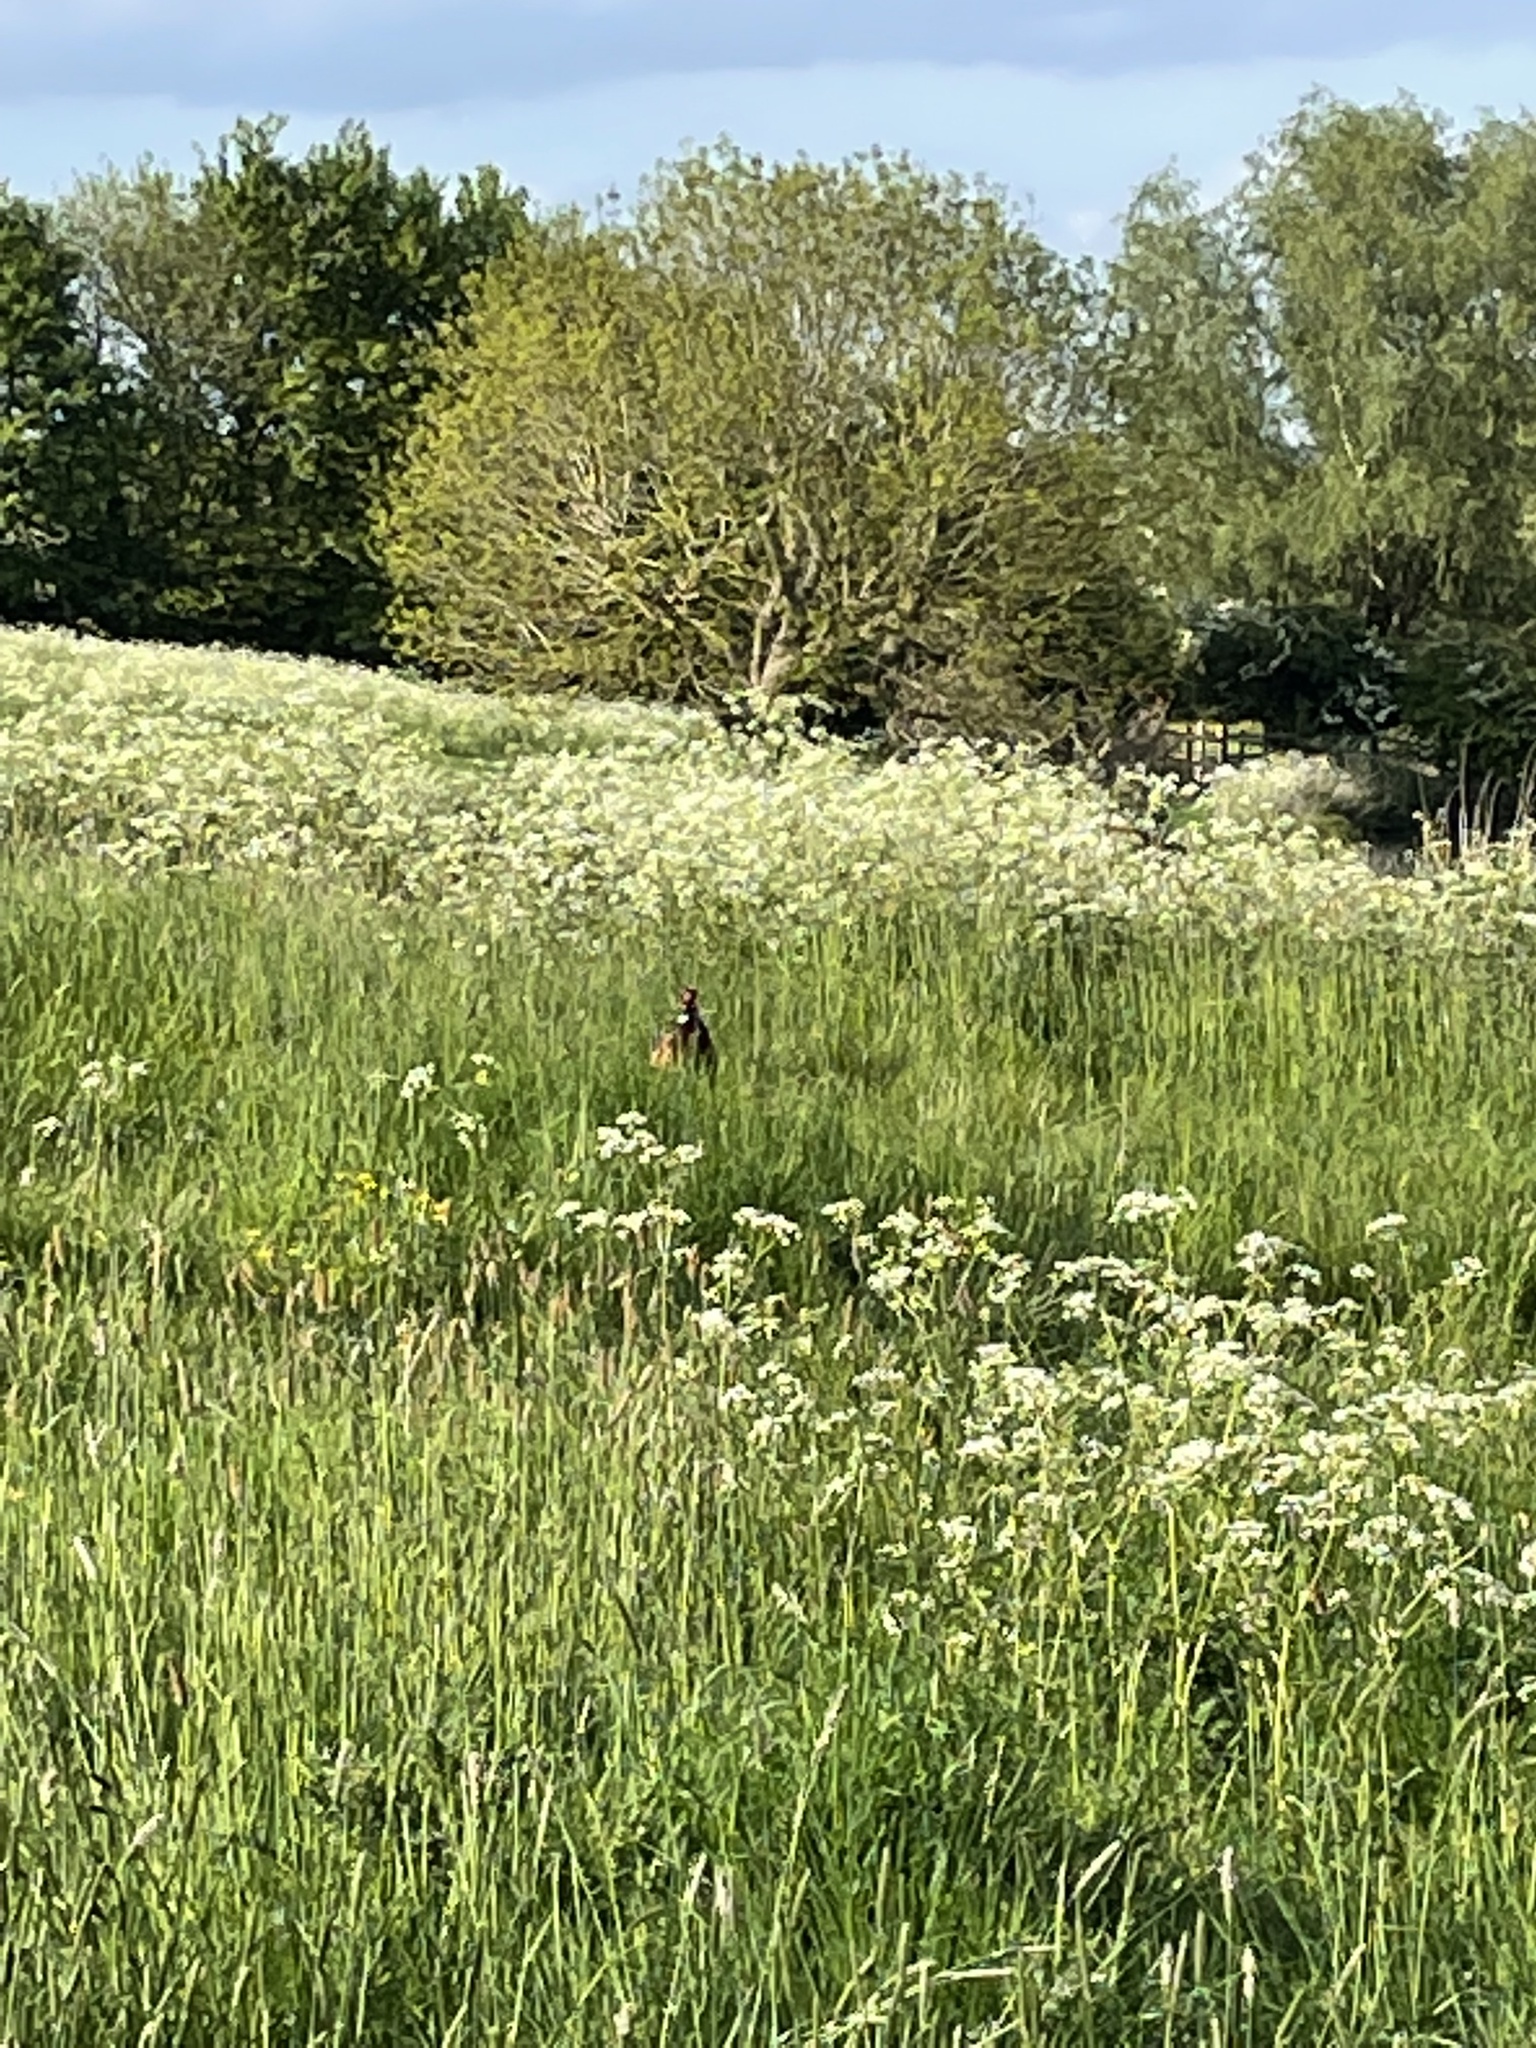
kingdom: Animalia
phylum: Chordata
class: Aves
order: Galliformes
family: Phasianidae
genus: Phasianus
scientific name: Phasianus colchicus
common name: Common pheasant
